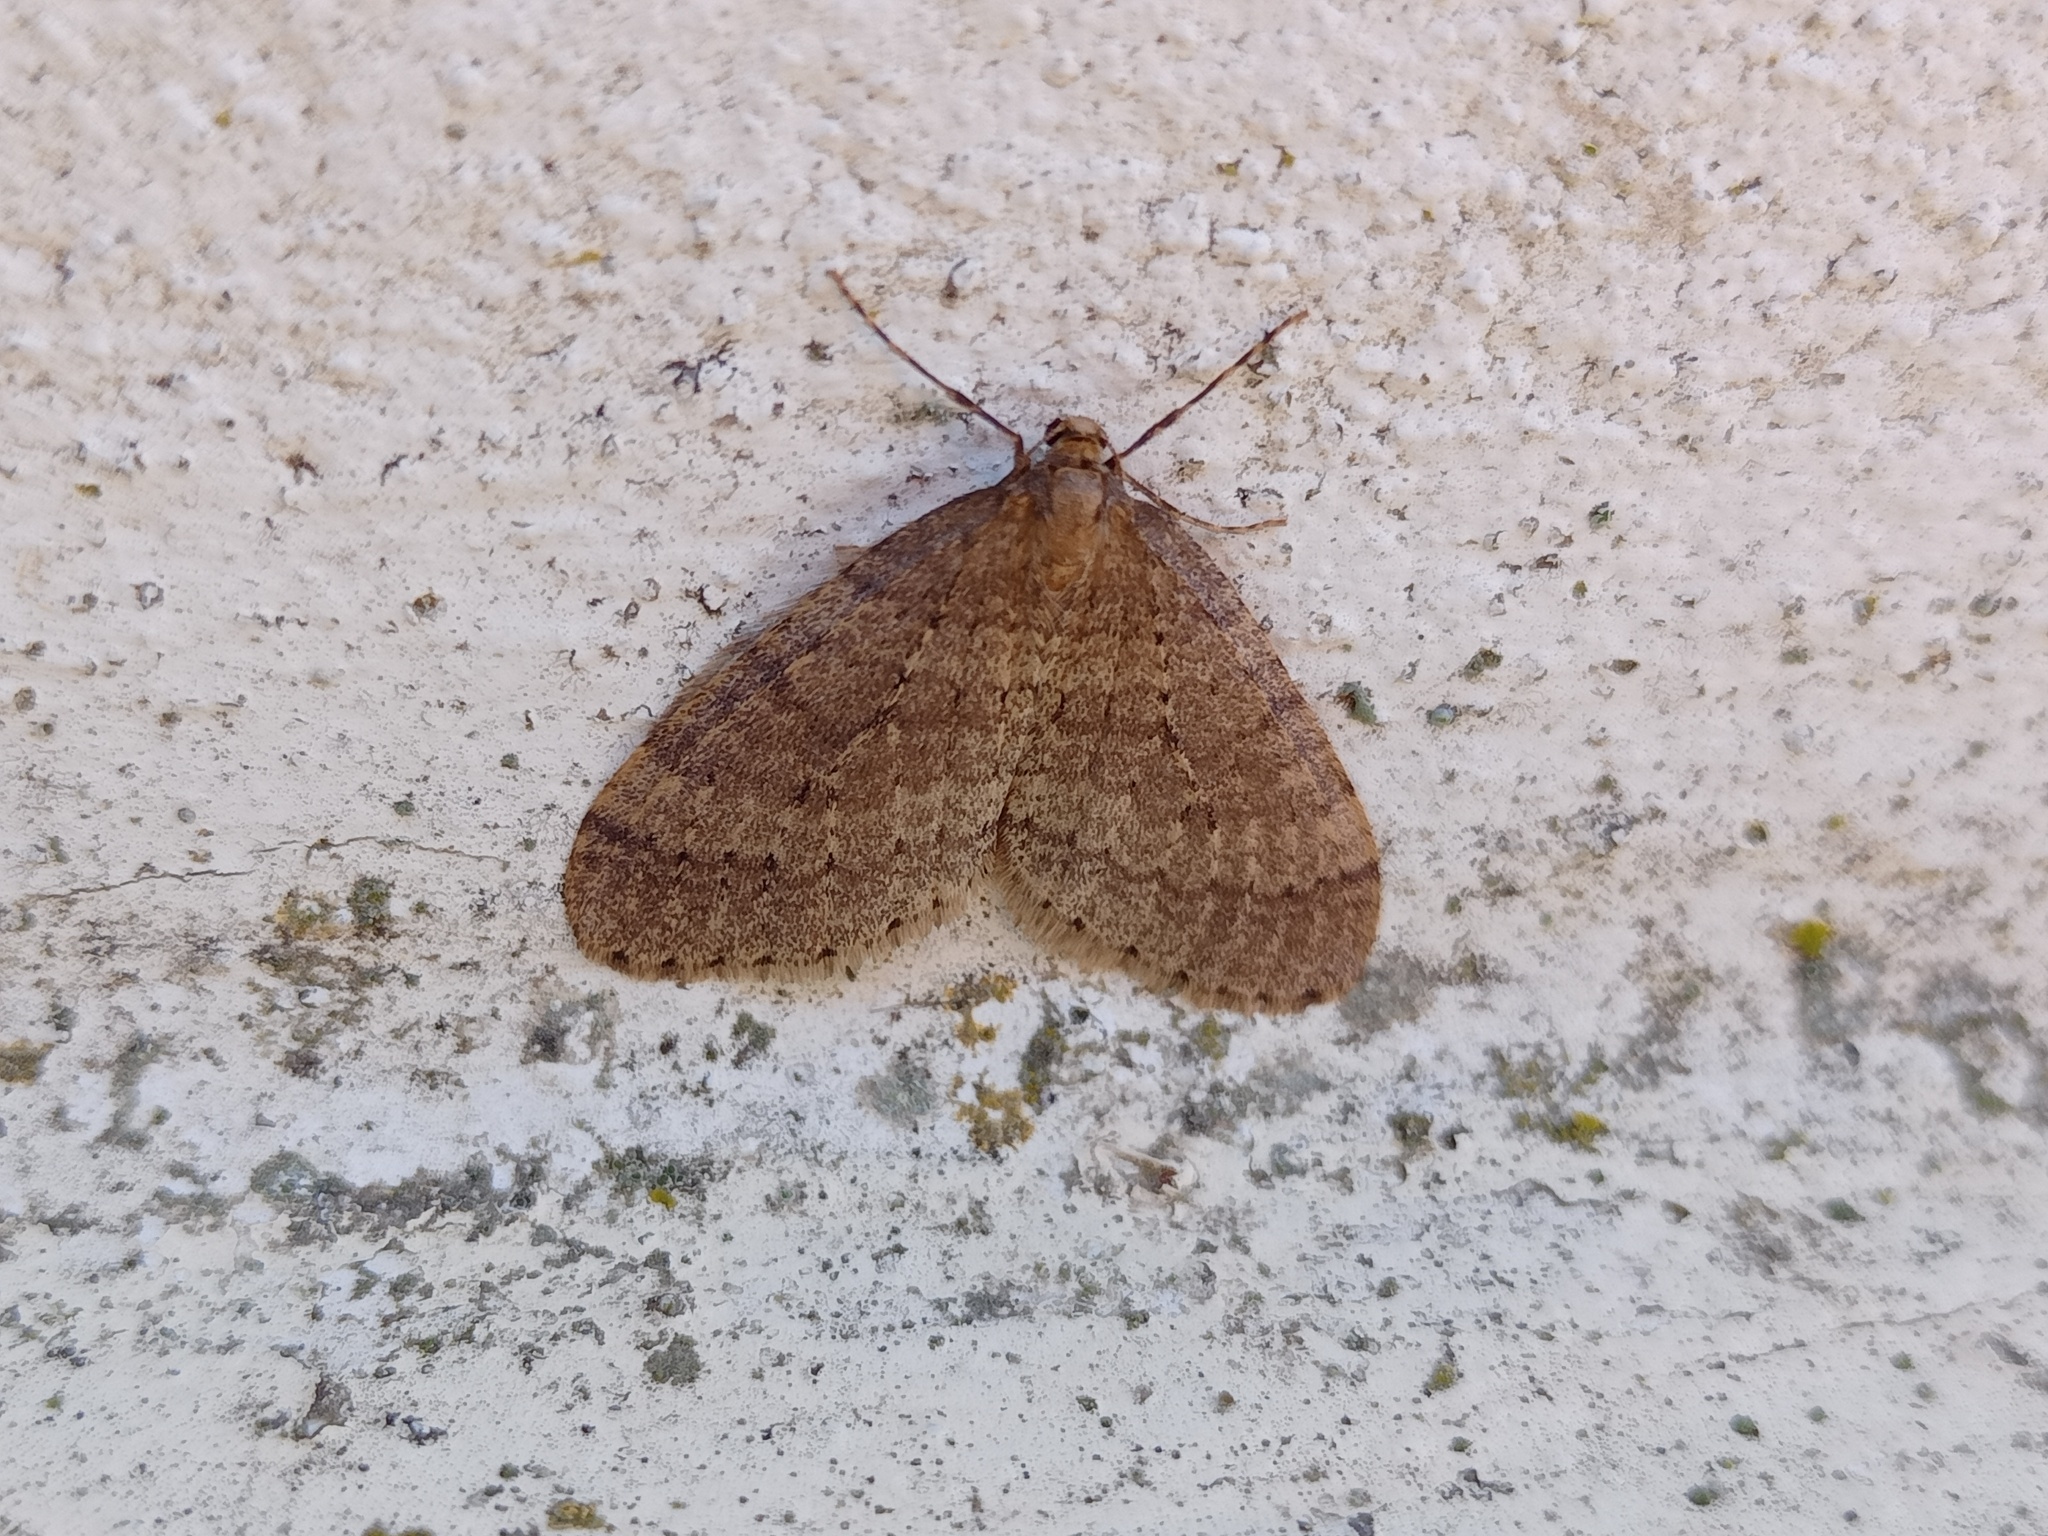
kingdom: Animalia
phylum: Arthropoda
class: Insecta
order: Lepidoptera
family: Geometridae
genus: Operophtera
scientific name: Operophtera brumata
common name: Winter moth
